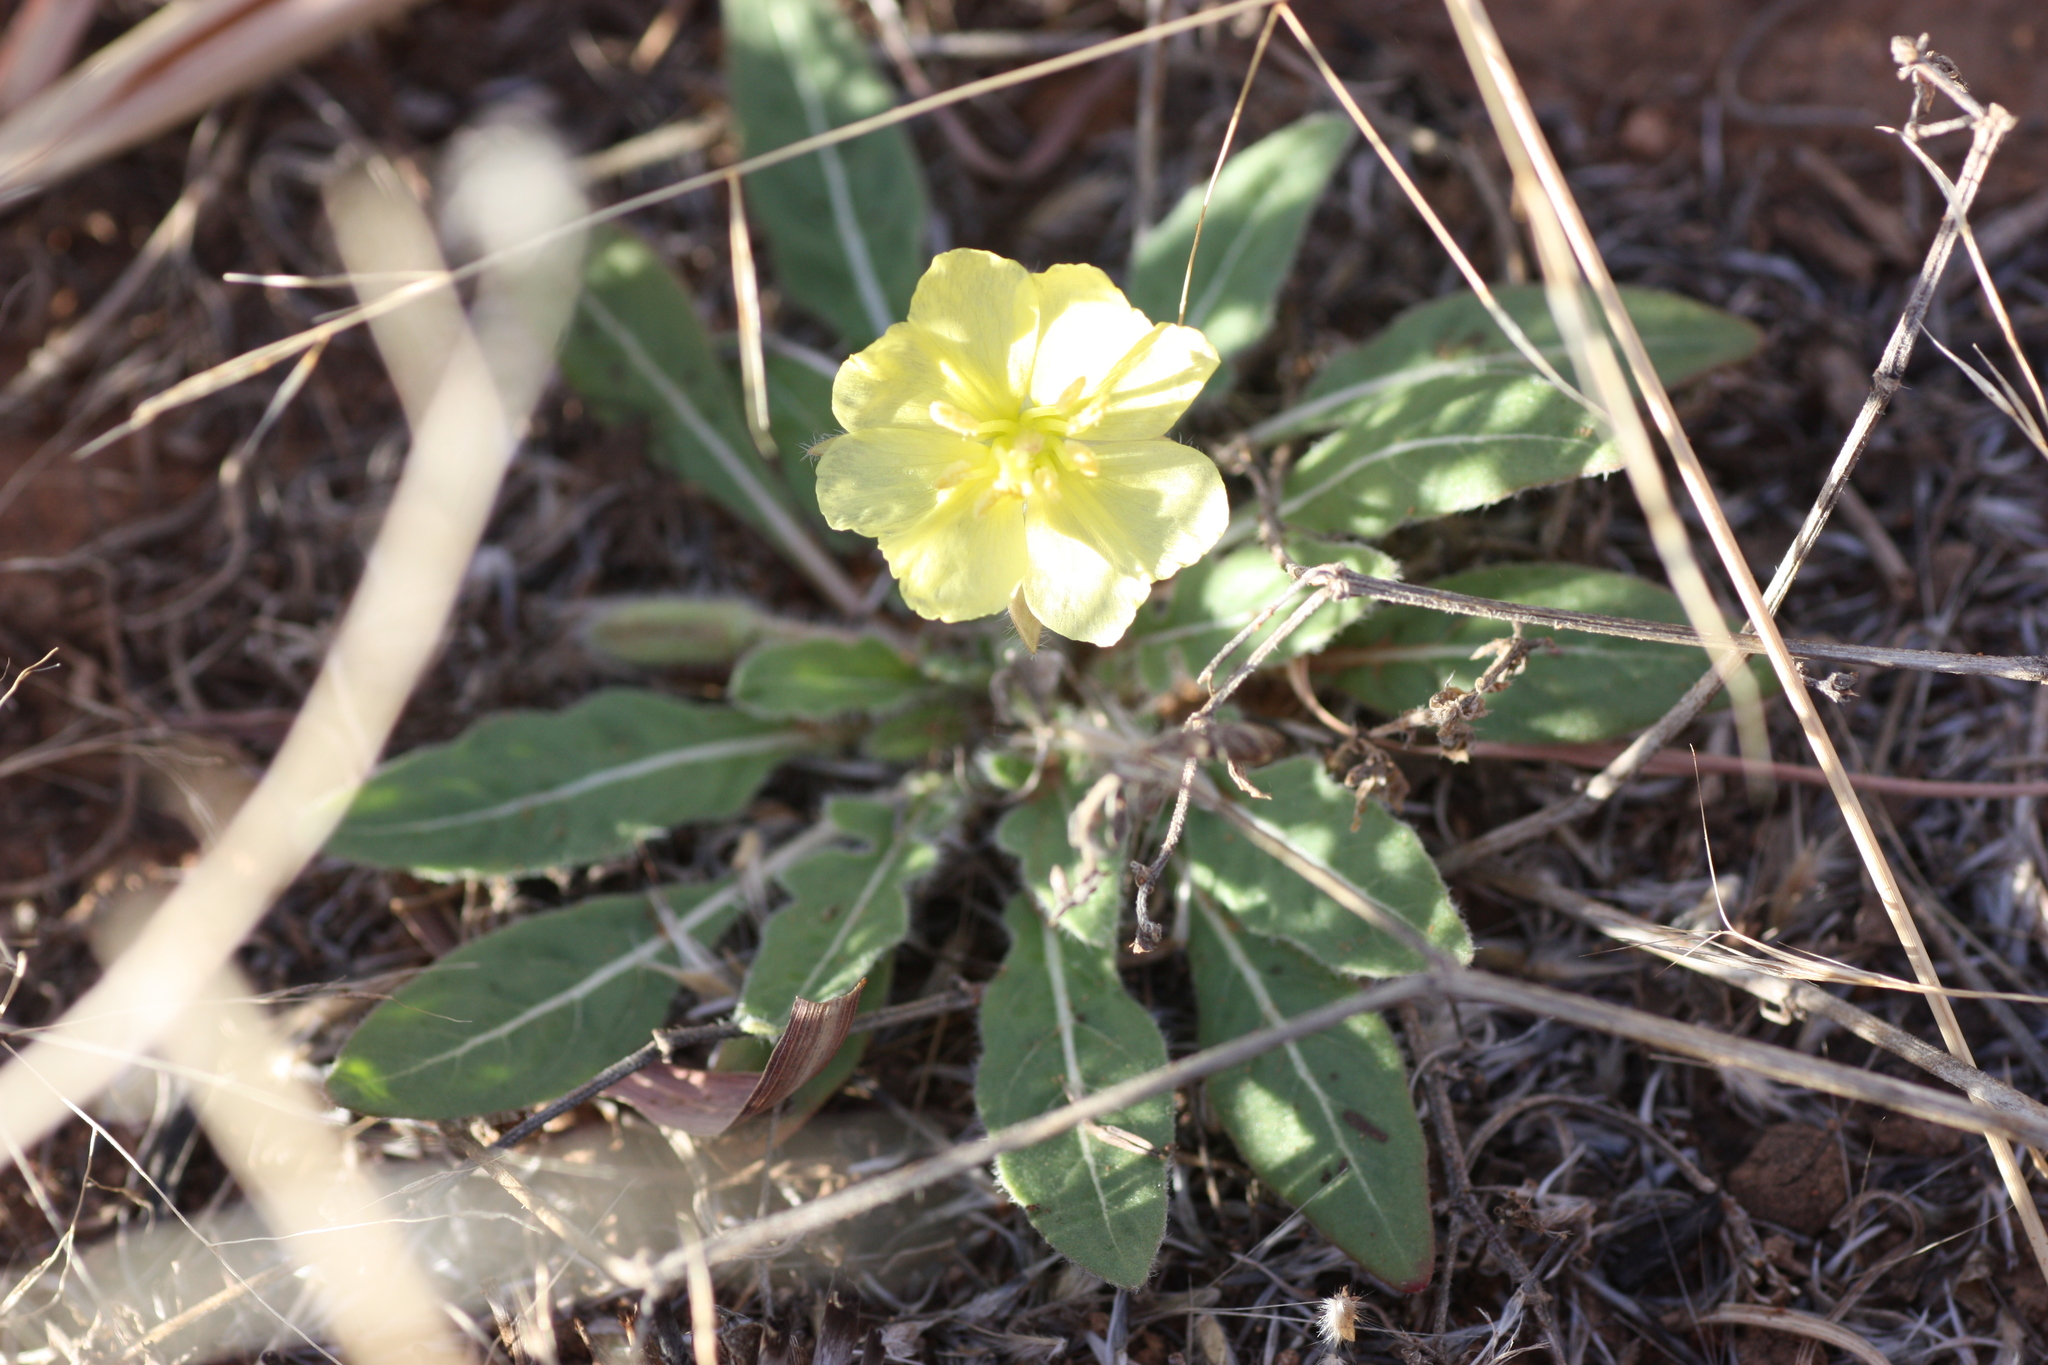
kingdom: Plantae
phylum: Tracheophyta
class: Magnoliopsida
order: Myrtales
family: Onagraceae
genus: Oenothera
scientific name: Oenothera primiveris
